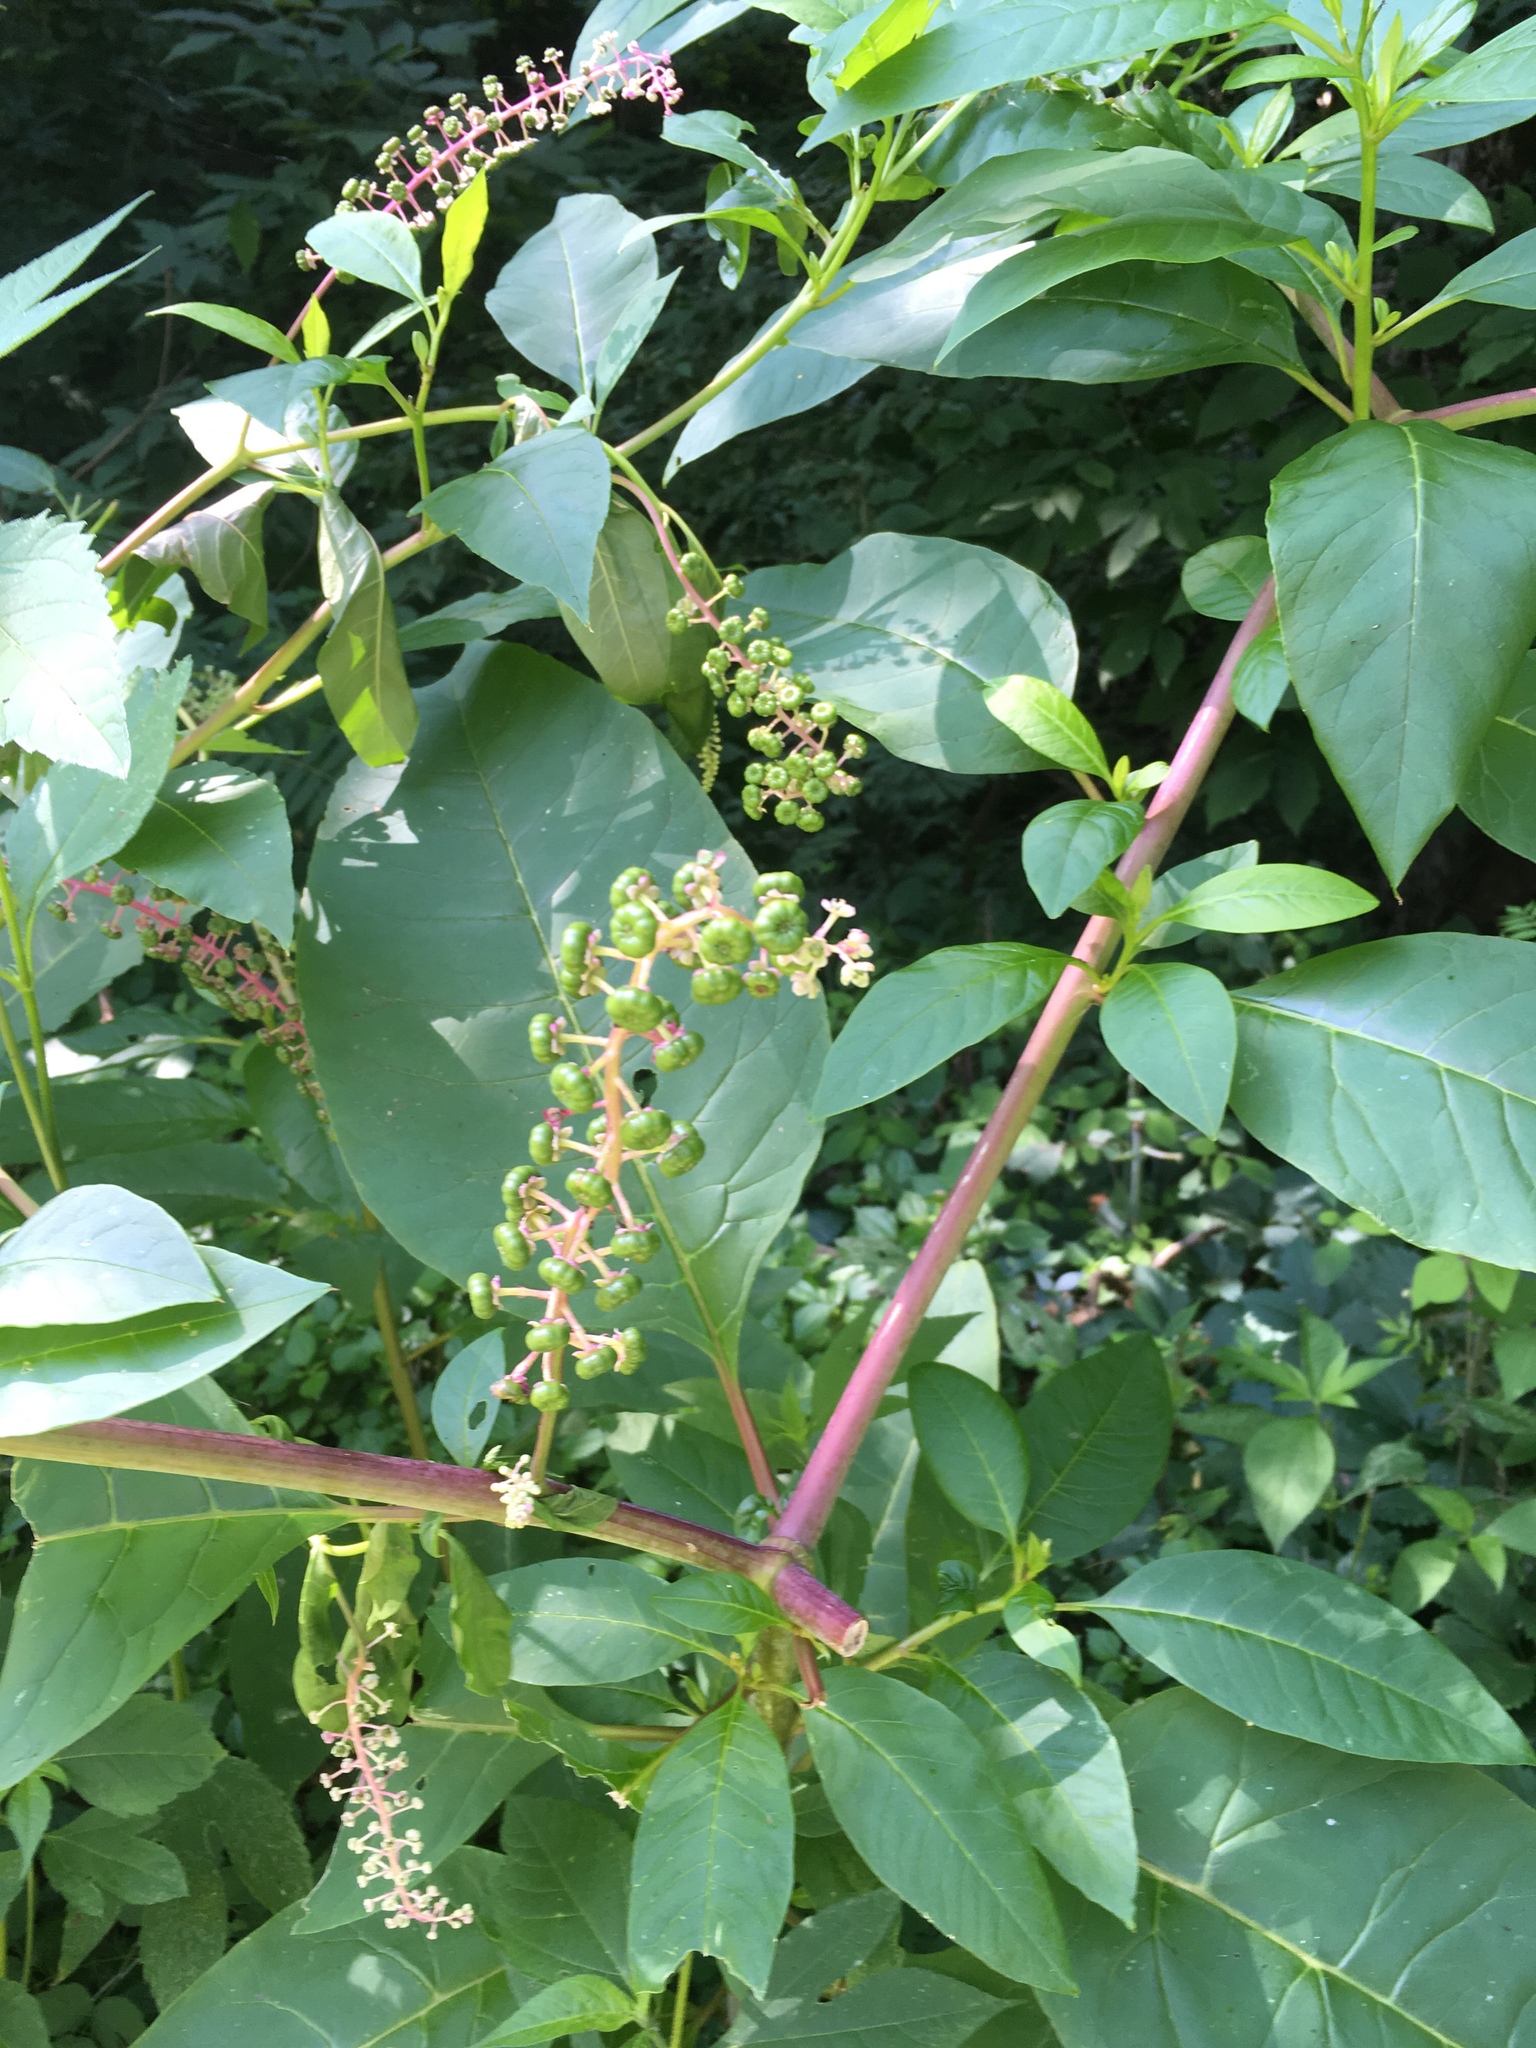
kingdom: Plantae
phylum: Tracheophyta
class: Magnoliopsida
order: Caryophyllales
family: Phytolaccaceae
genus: Phytolacca
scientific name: Phytolacca americana
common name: American pokeweed
